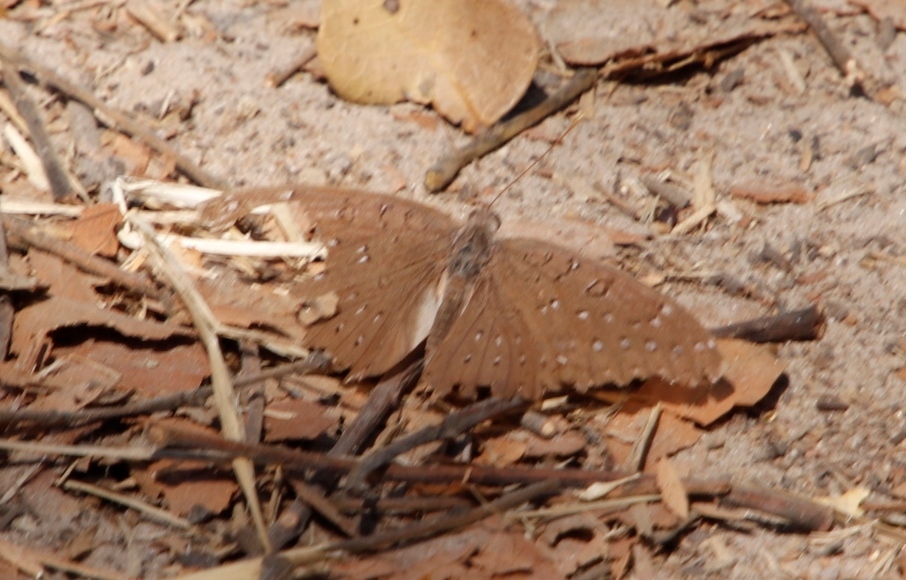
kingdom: Animalia
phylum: Arthropoda
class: Insecta
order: Lepidoptera
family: Nymphalidae
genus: Hamanumida
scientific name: Hamanumida daedalus
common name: Guinea-fowl butterfly
